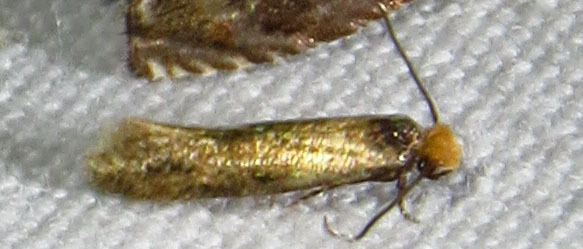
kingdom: Animalia
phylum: Arthropoda
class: Insecta
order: Lepidoptera
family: Meessiidae
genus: Homostinea
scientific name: Homostinea curviliniella
